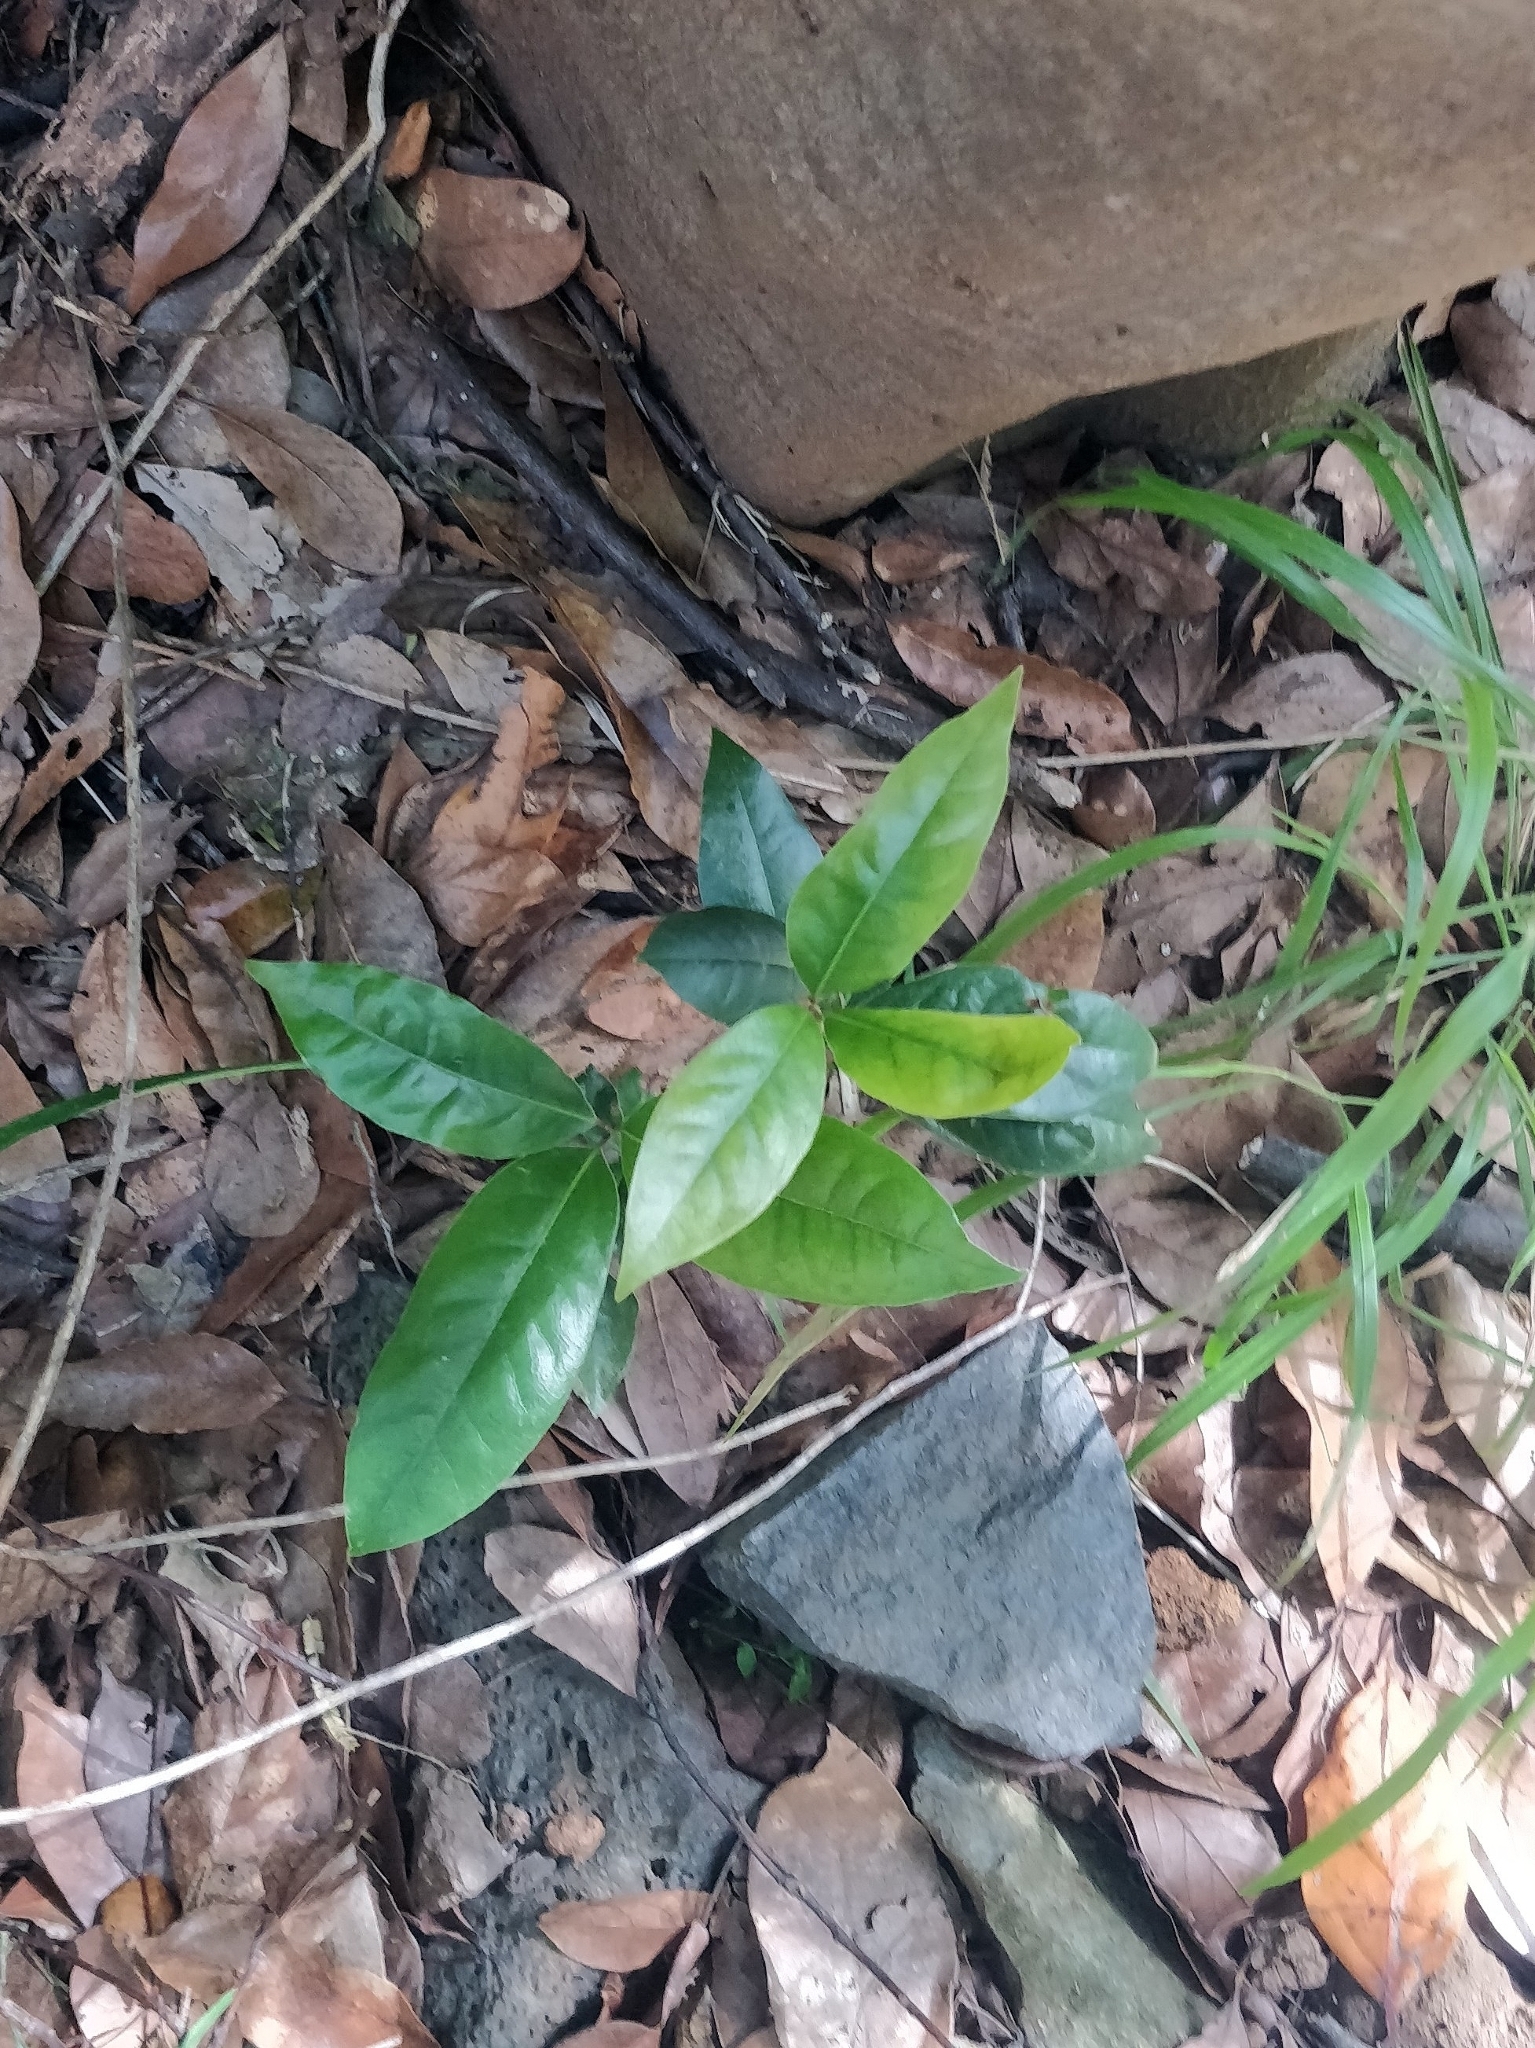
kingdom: Plantae
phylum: Tracheophyta
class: Magnoliopsida
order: Laurales
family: Lauraceae
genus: Apollonias
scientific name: Apollonias barbujana
